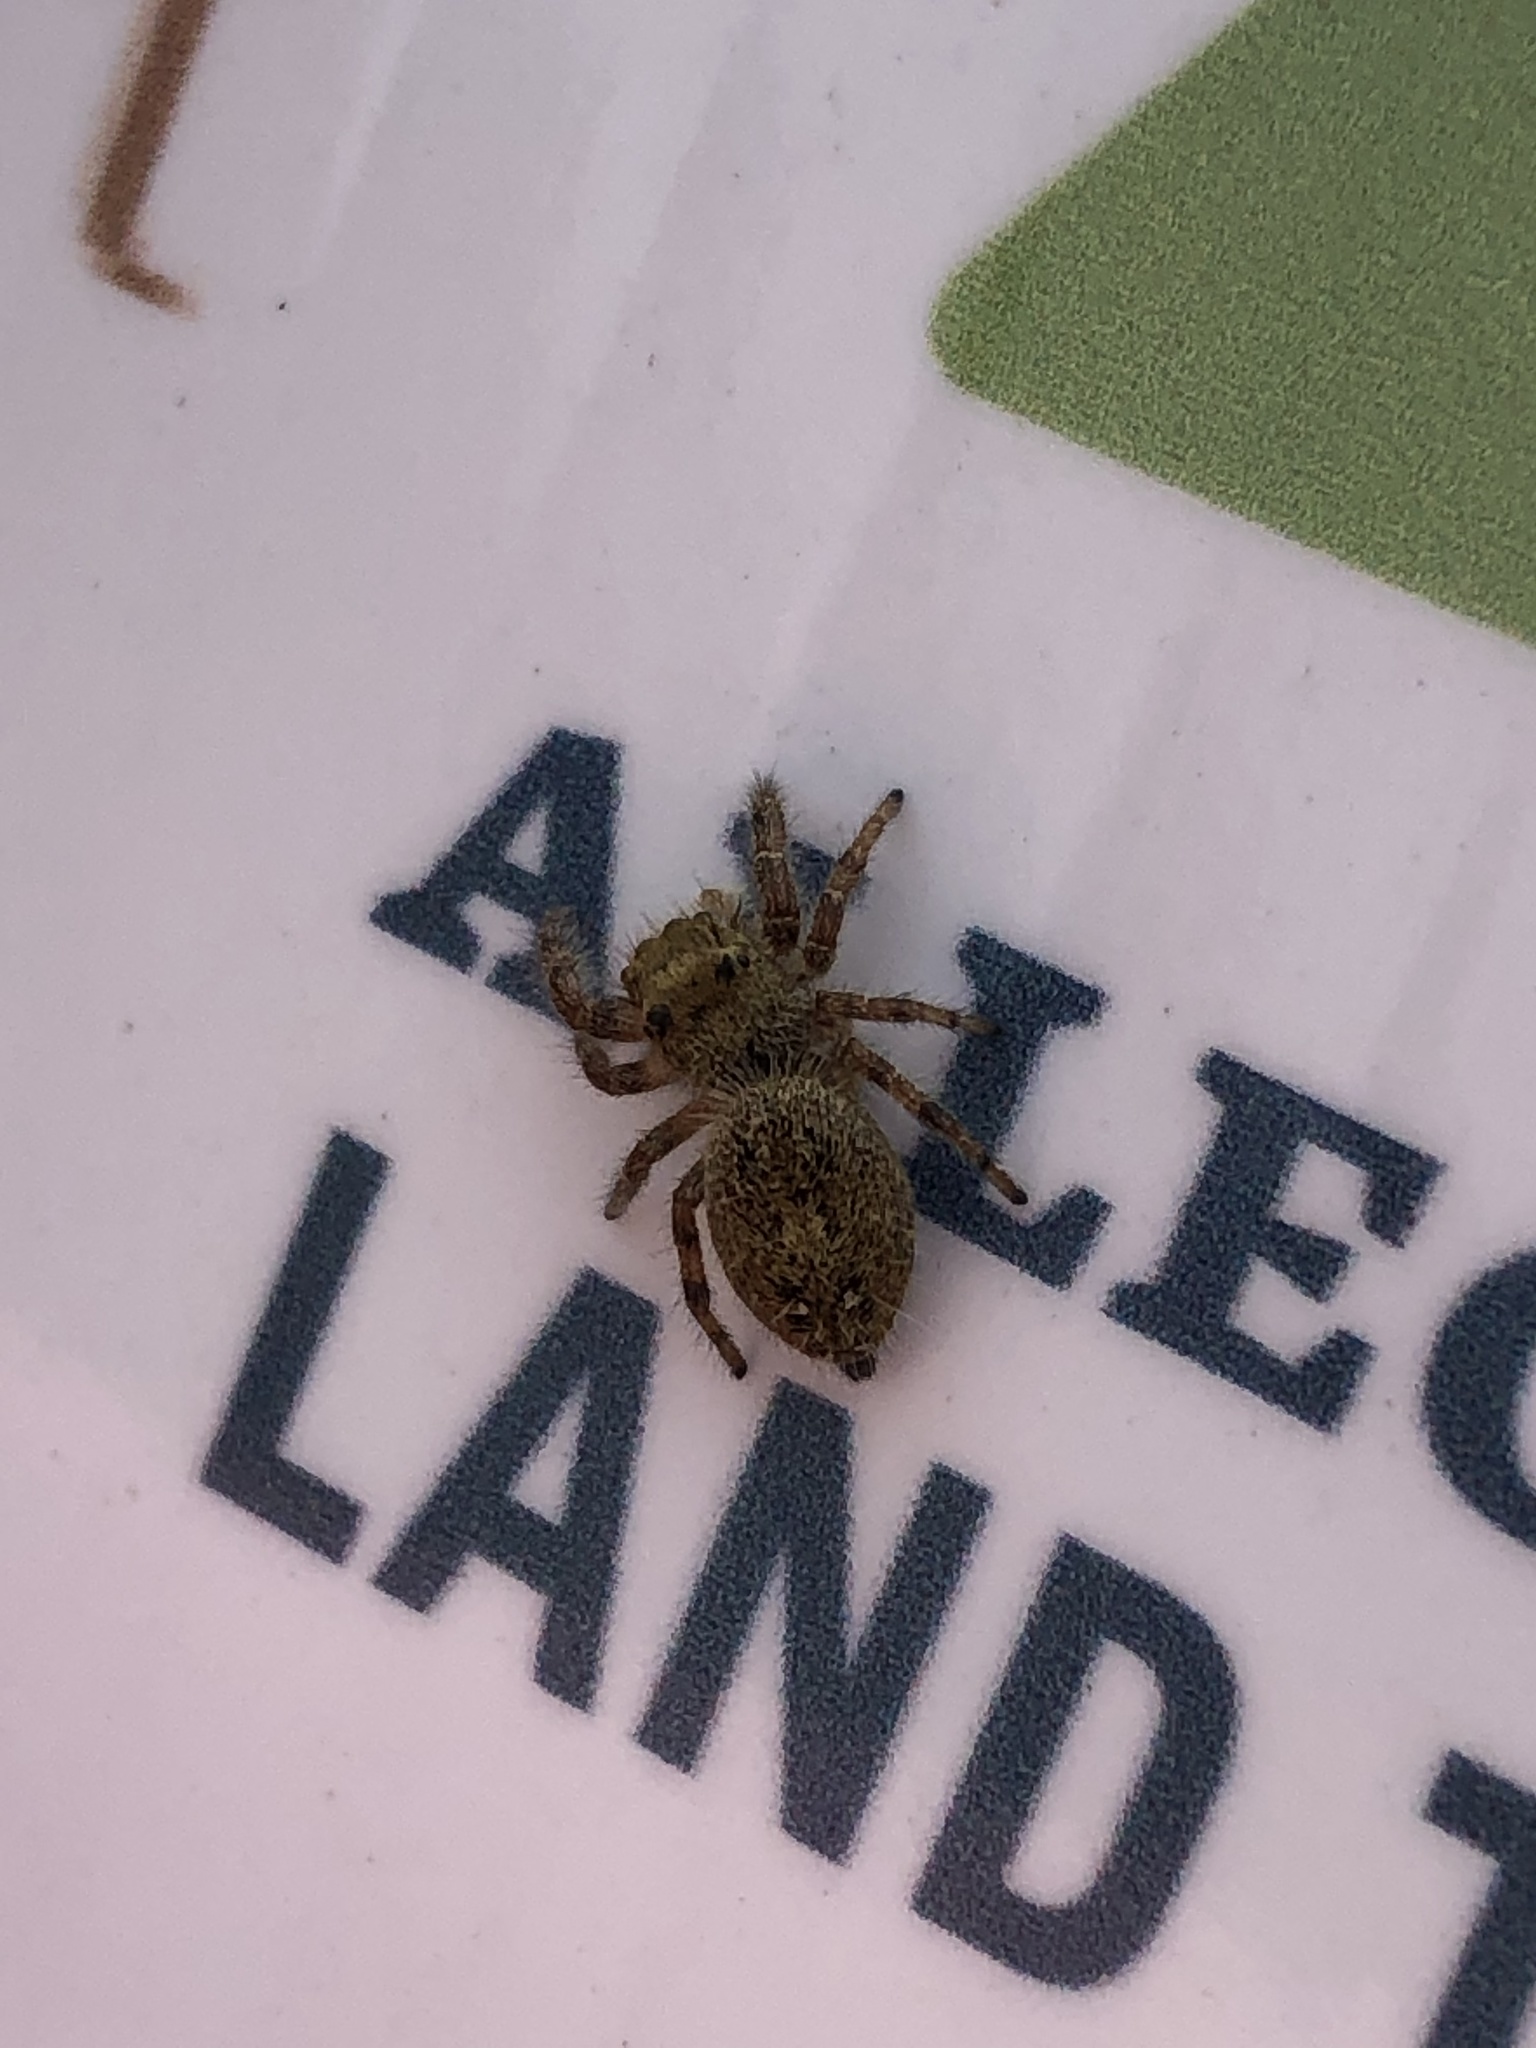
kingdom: Animalia
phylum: Arthropoda
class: Arachnida
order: Araneae
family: Salticidae
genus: Phidippus
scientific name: Phidippus princeps
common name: Grayish jumping spider
